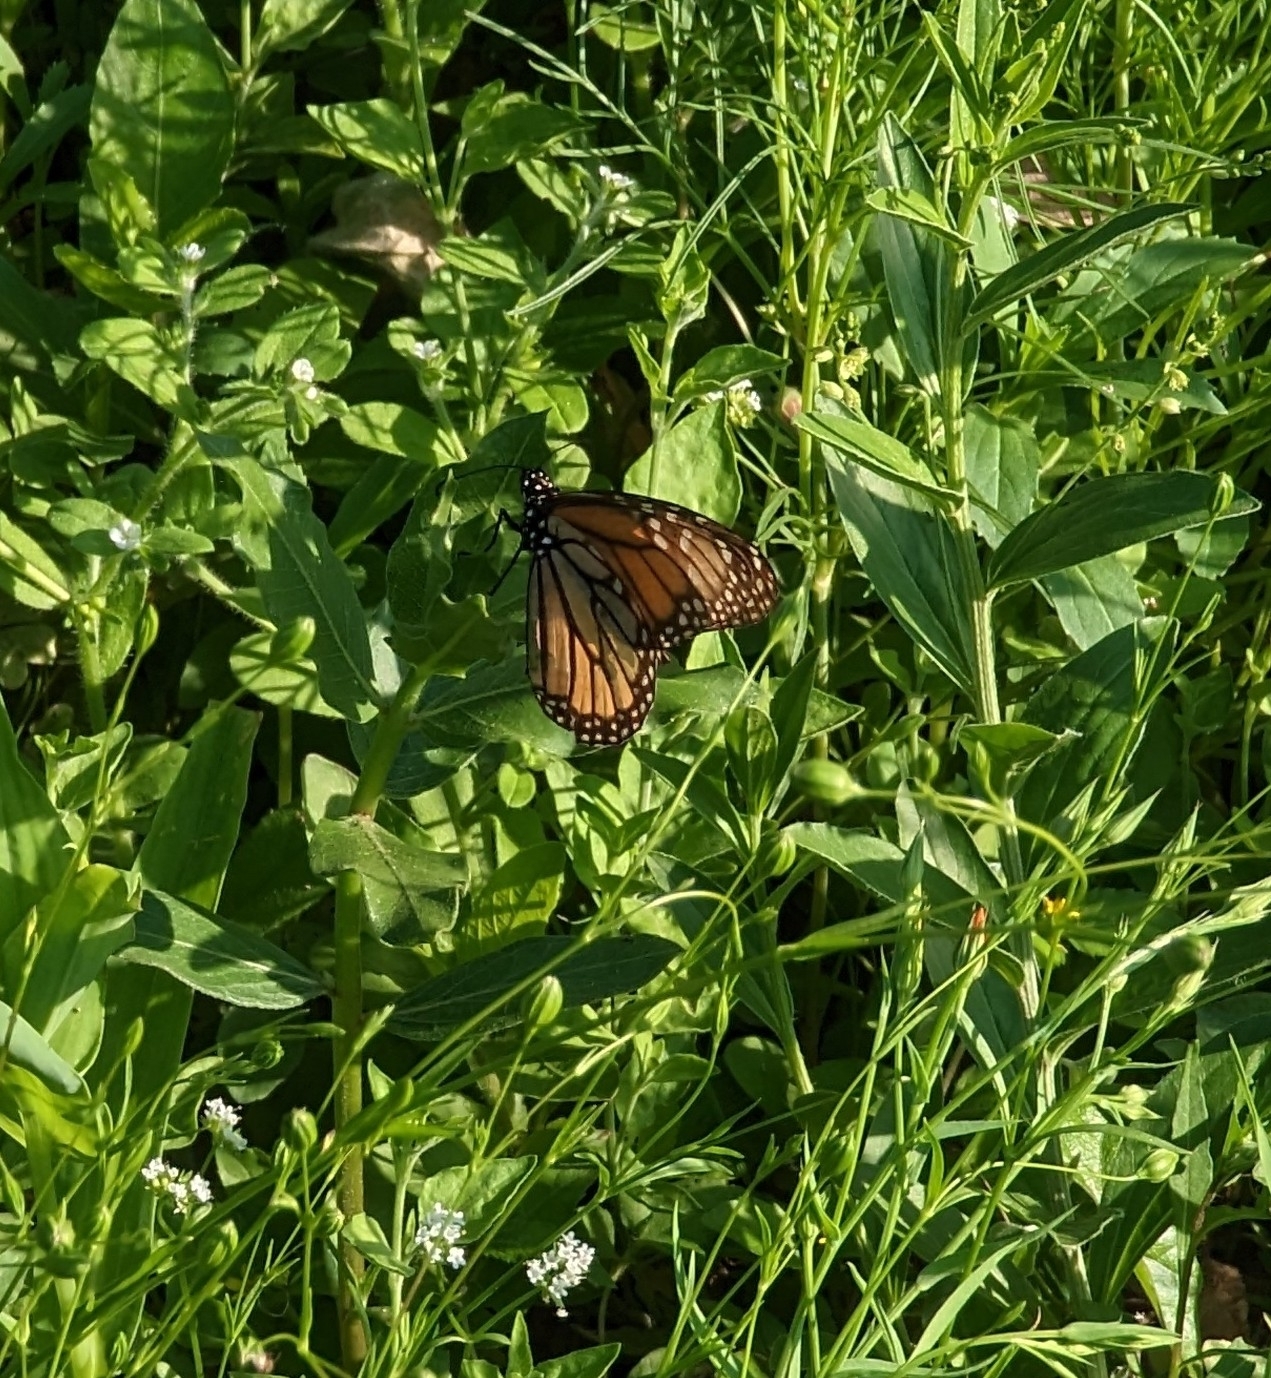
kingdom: Animalia
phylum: Arthropoda
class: Insecta
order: Lepidoptera
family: Nymphalidae
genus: Danaus
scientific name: Danaus plexippus
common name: Monarch
